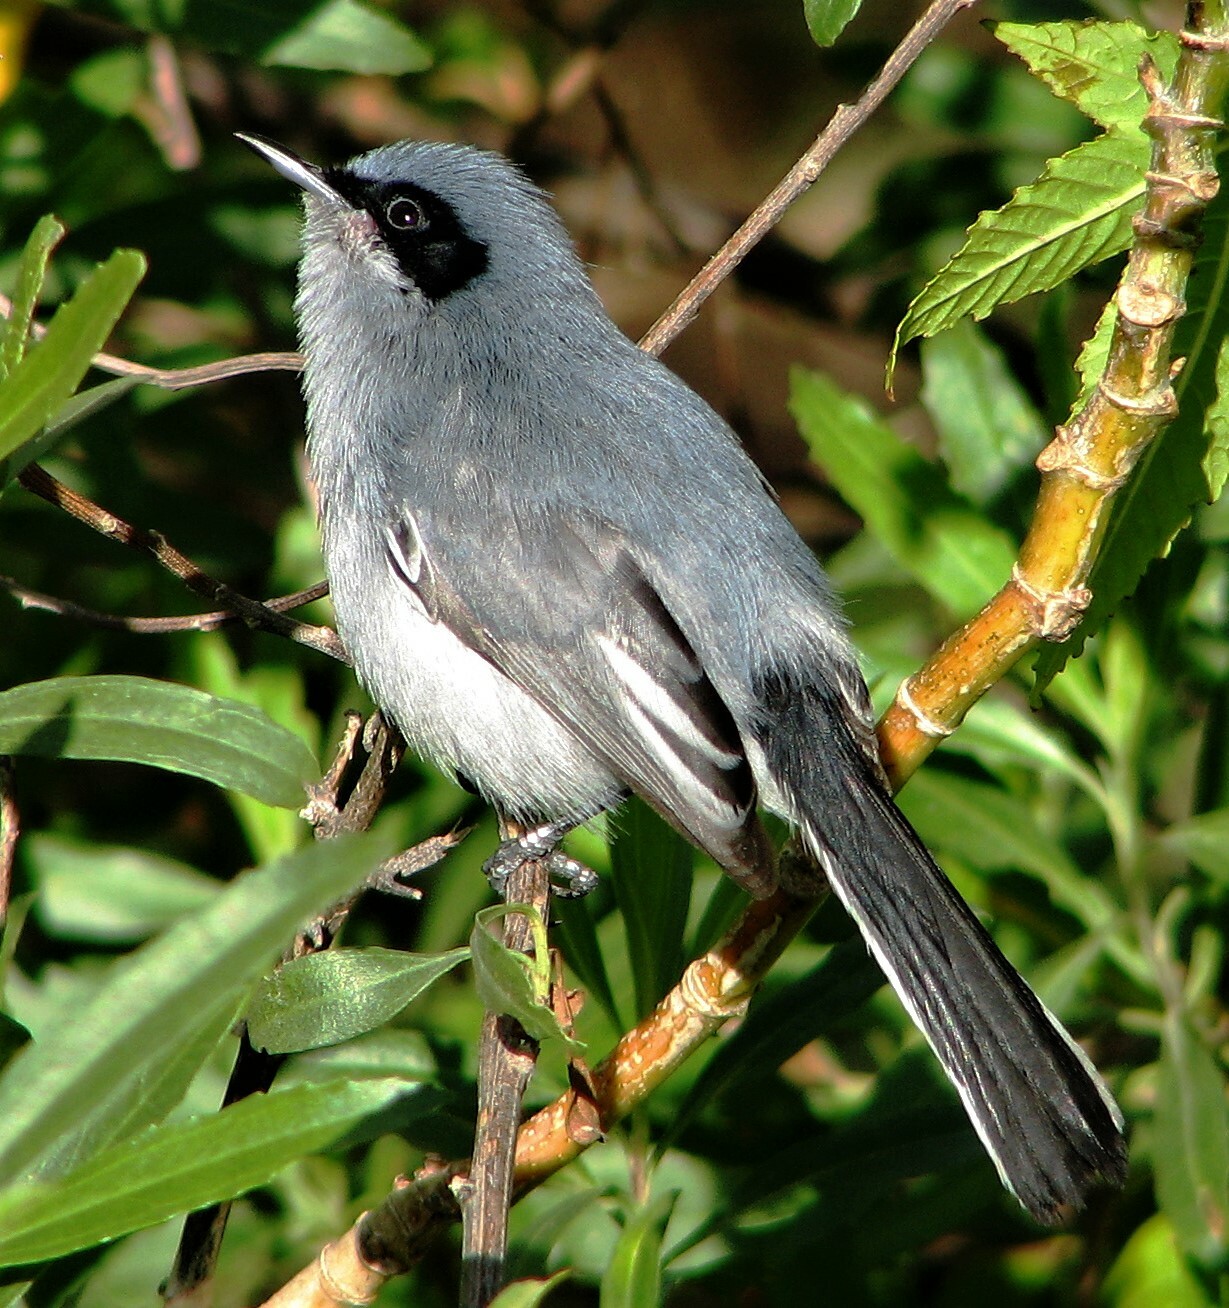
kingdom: Animalia
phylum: Chordata
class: Aves
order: Passeriformes
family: Polioptilidae
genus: Polioptila
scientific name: Polioptila dumicola
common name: Masked gnatcatcher
